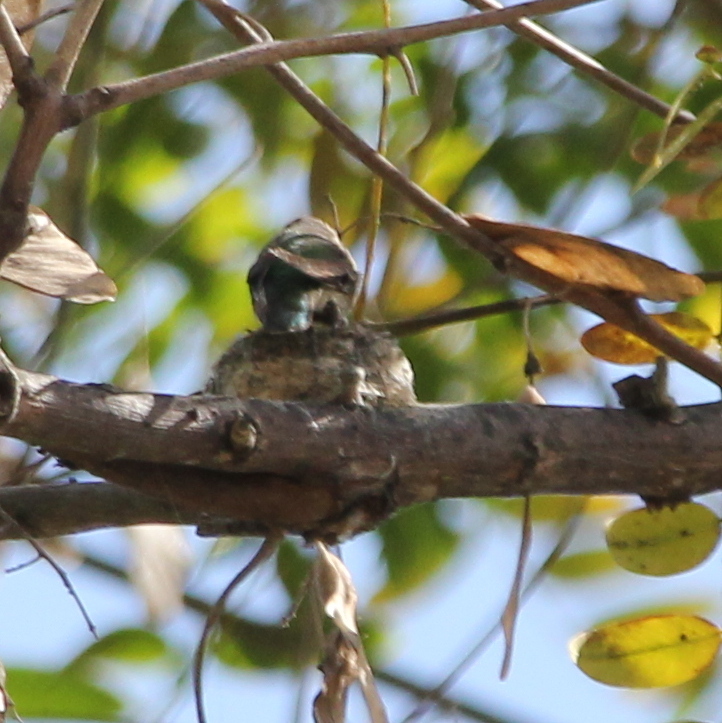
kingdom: Animalia
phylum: Chordata
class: Aves
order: Apodiformes
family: Trochilidae
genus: Calypte
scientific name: Calypte anna
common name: Anna's hummingbird
